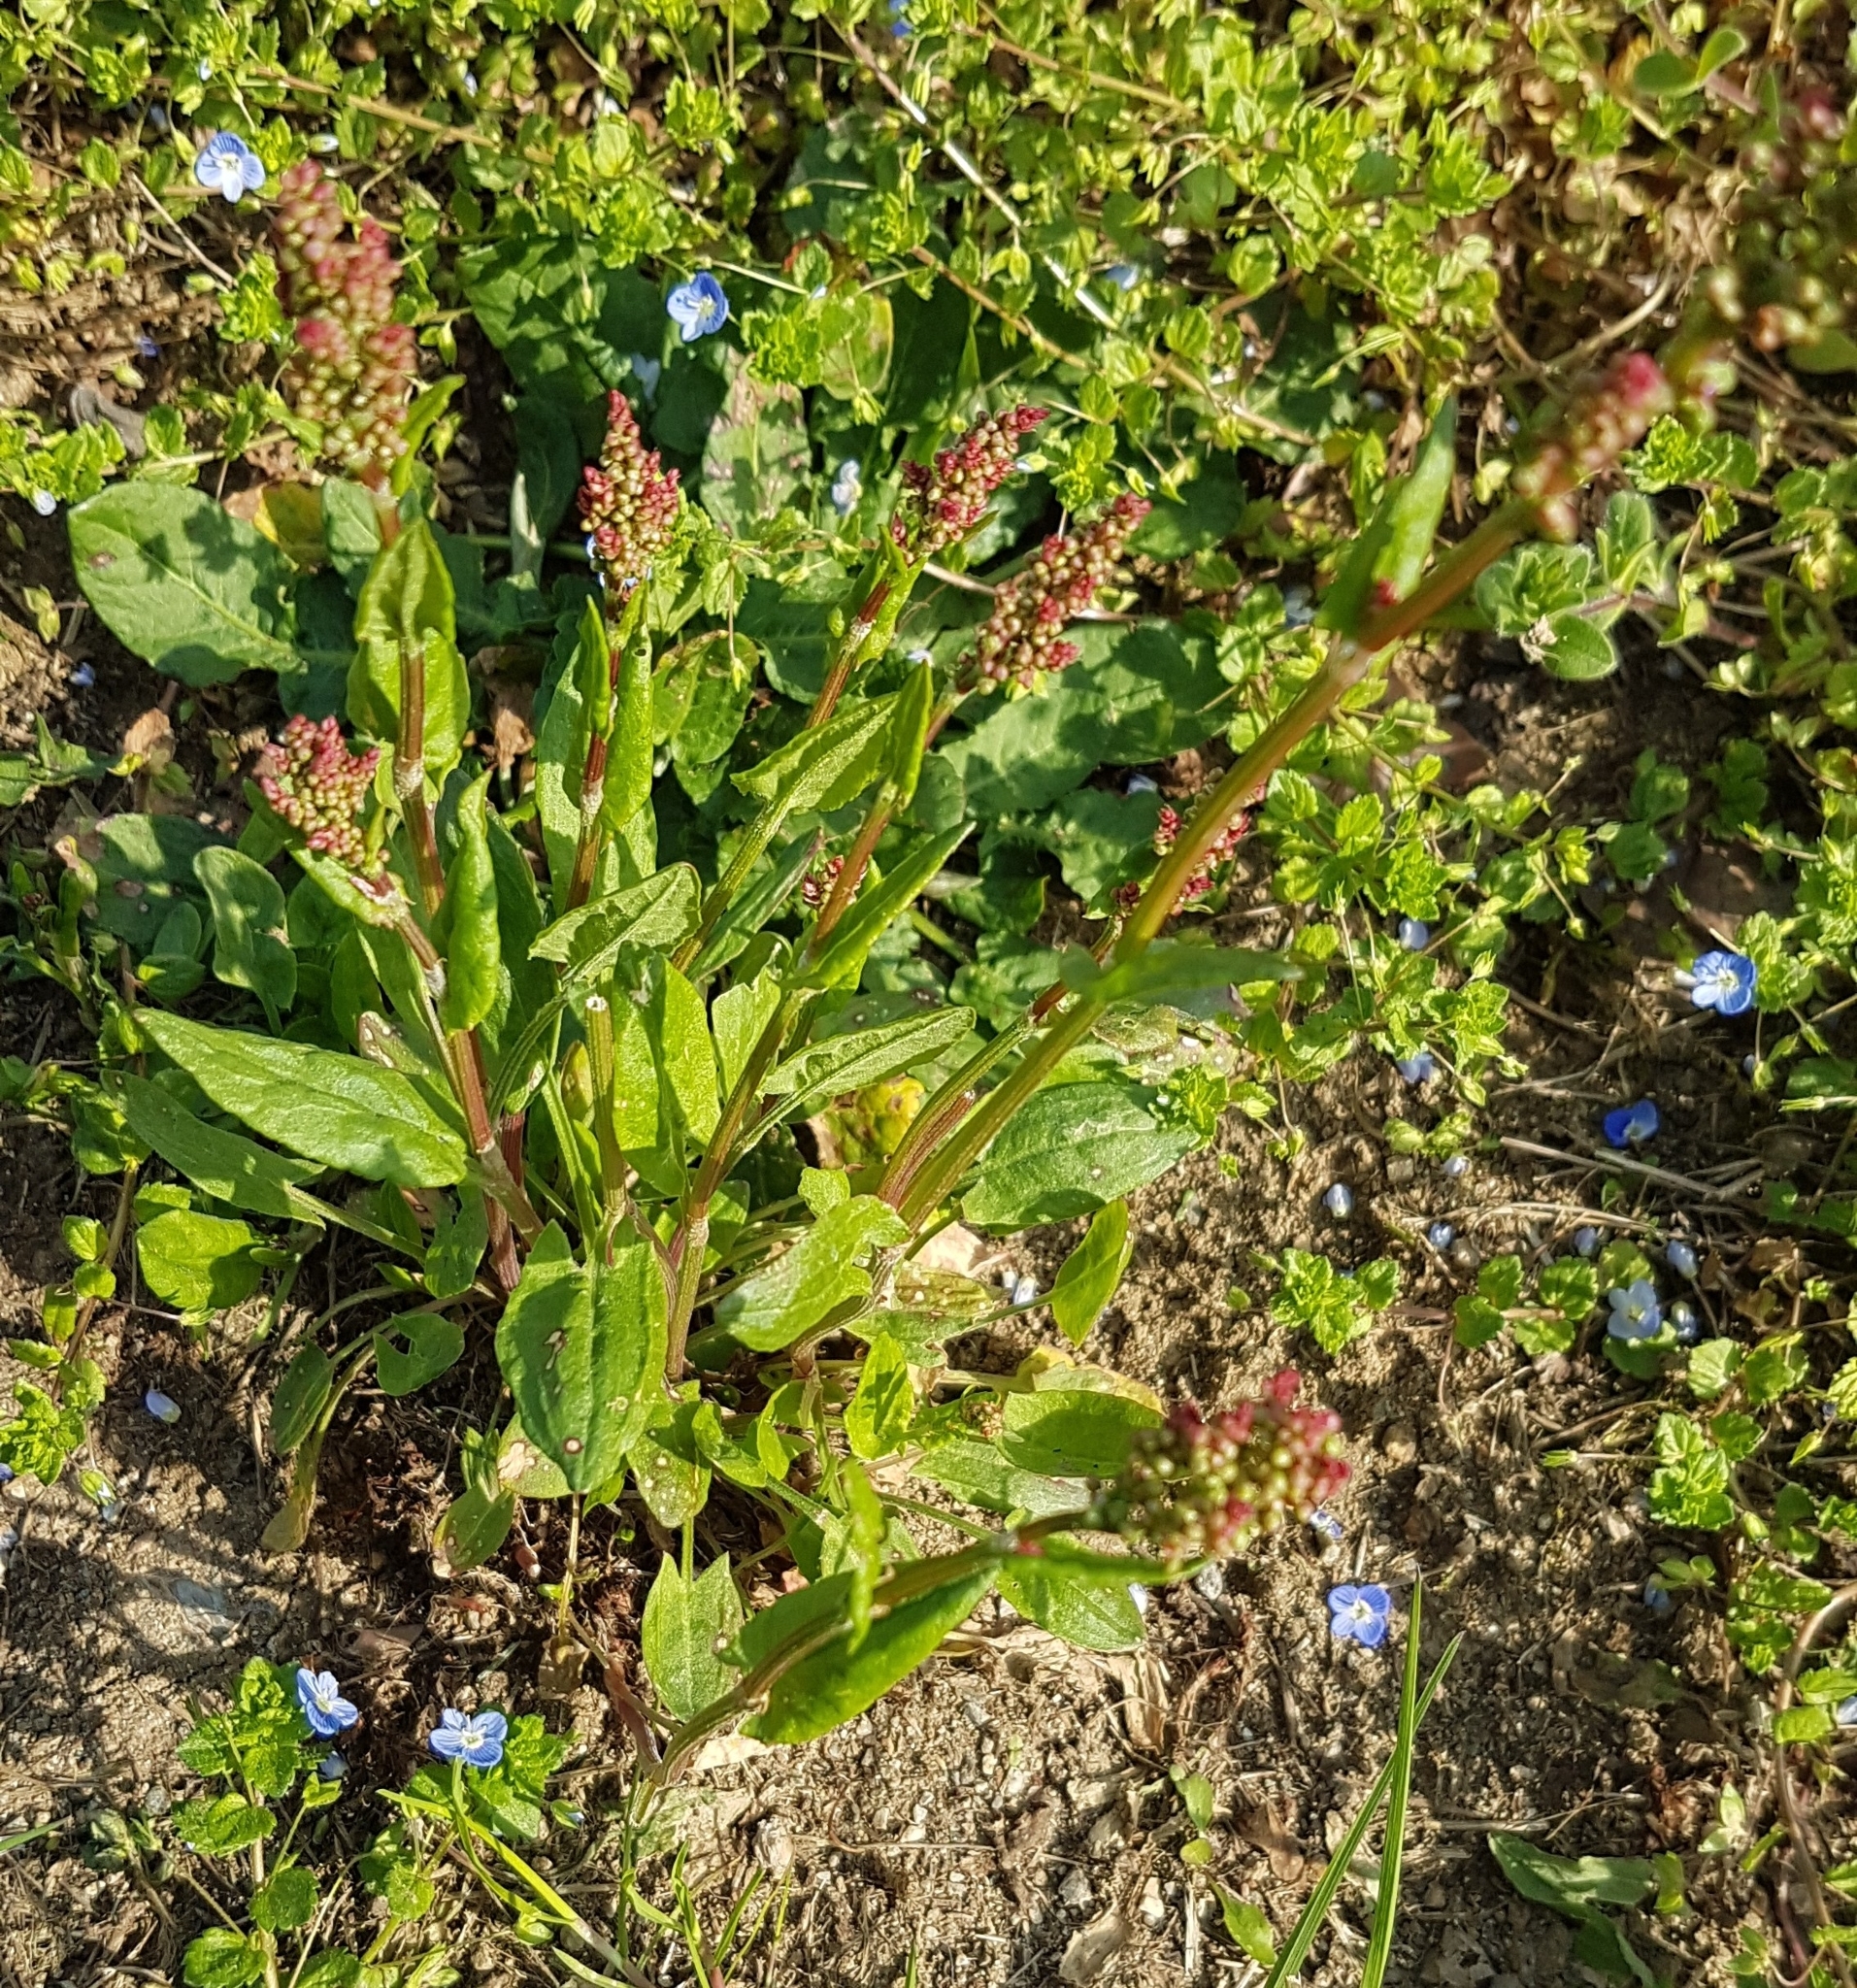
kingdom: Plantae
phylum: Tracheophyta
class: Magnoliopsida
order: Caryophyllales
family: Polygonaceae
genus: Rumex
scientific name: Rumex acetosa
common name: Garden sorrel
